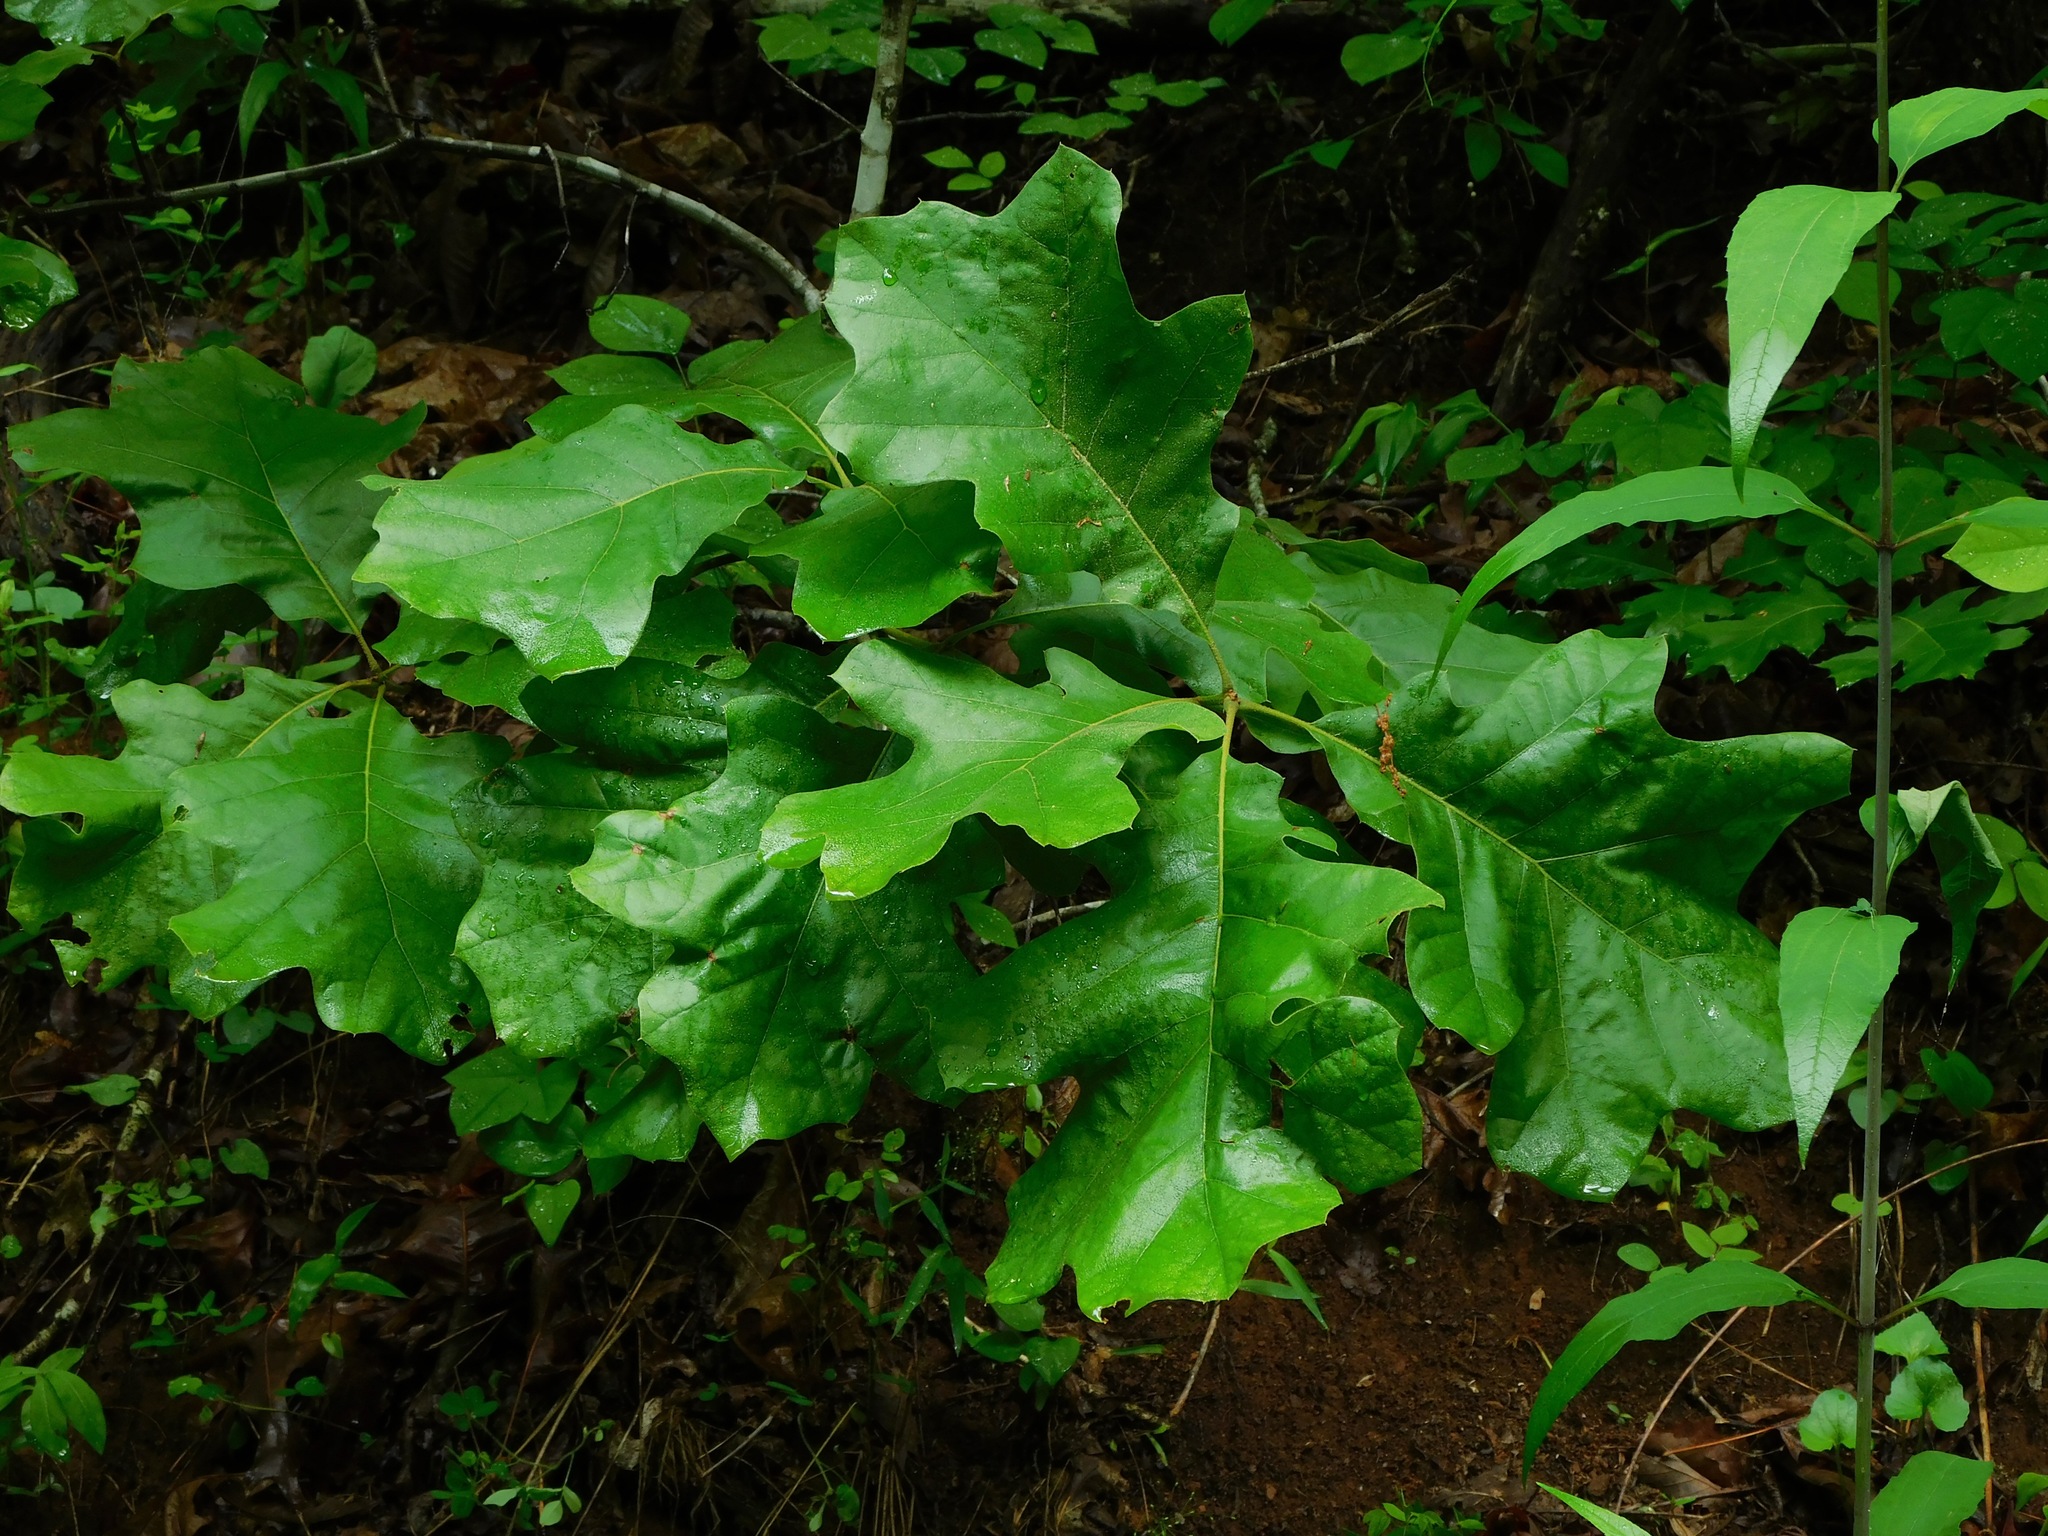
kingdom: Plantae
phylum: Tracheophyta
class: Magnoliopsida
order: Fagales
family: Fagaceae
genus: Quercus
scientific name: Quercus velutina
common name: Black oak
